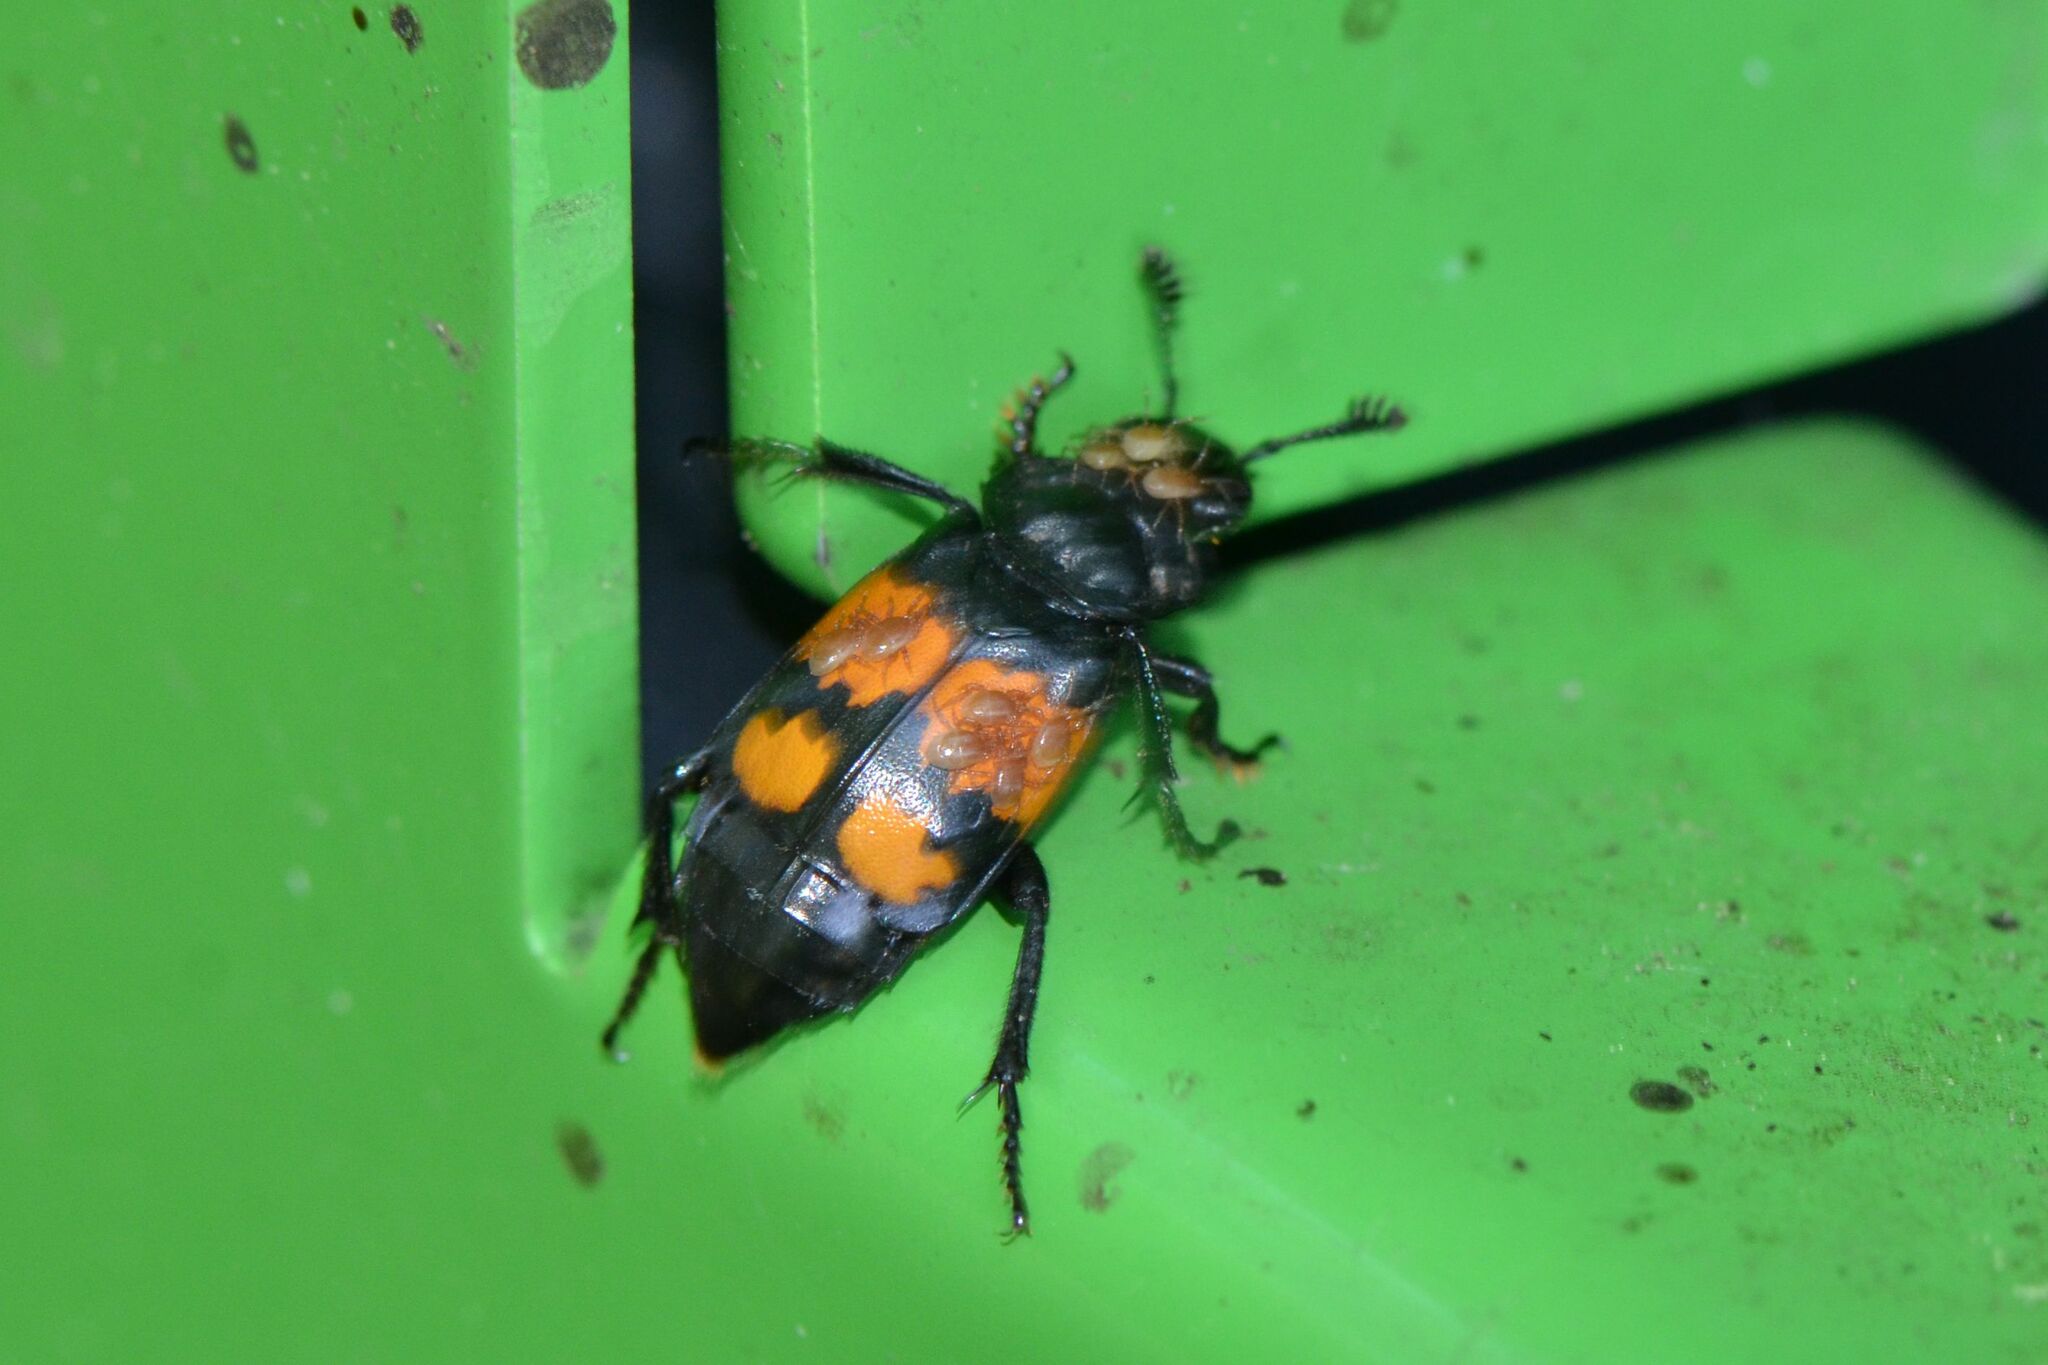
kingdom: Animalia
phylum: Arthropoda
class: Insecta
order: Coleoptera
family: Staphylinidae
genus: Nicrophorus
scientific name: Nicrophorus vespilloides
